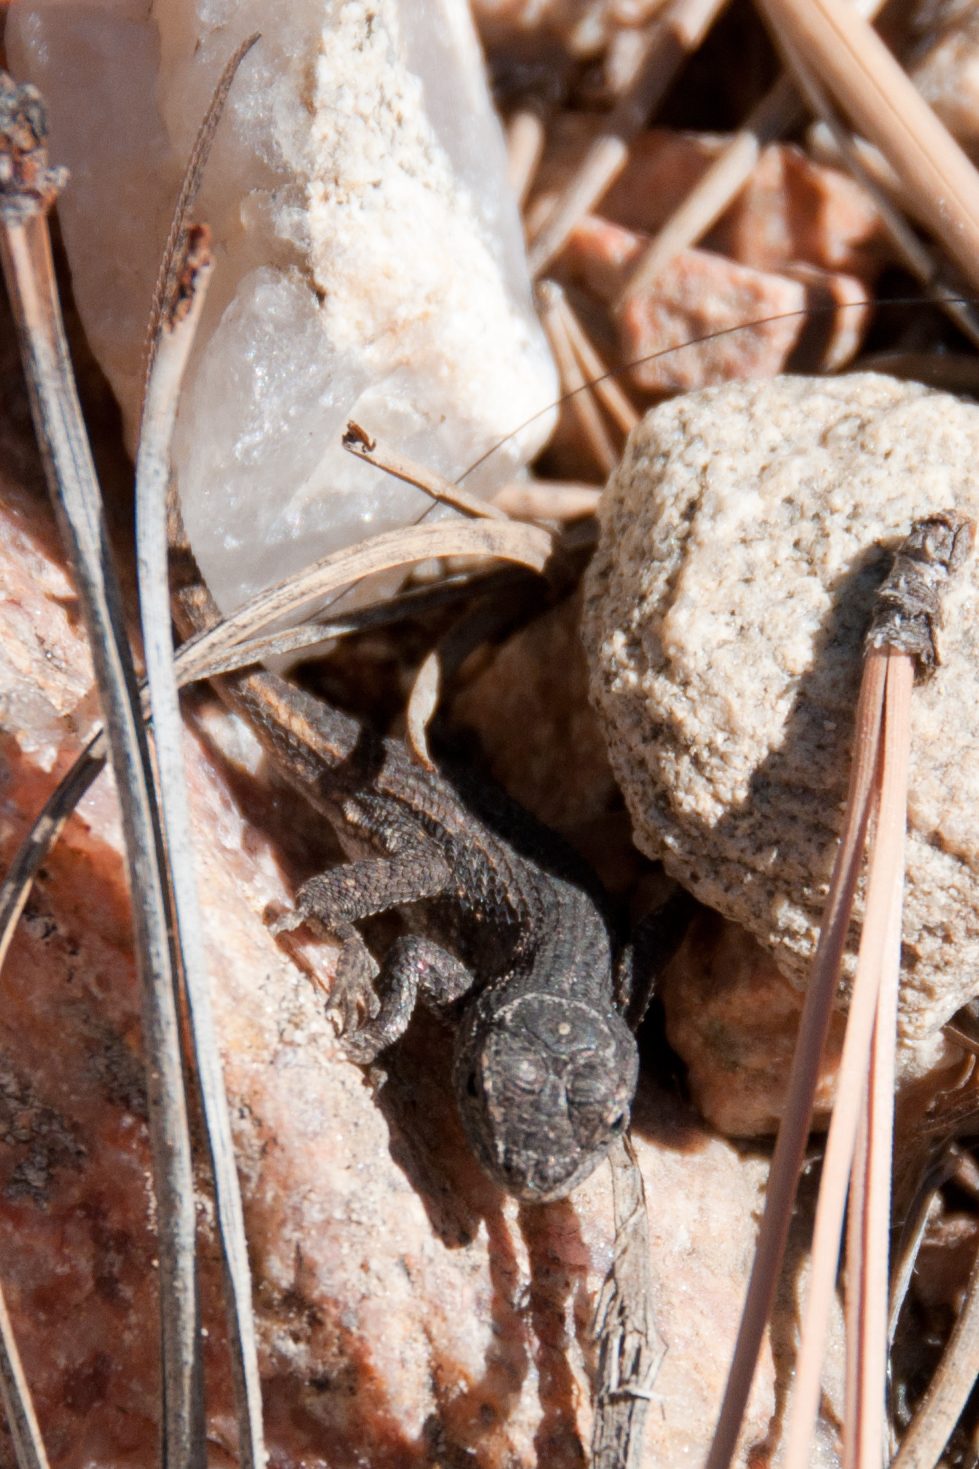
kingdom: Animalia
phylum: Chordata
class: Squamata
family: Phrynosomatidae
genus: Sceloporus
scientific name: Sceloporus cowlesi
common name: White sands prairie lizard
